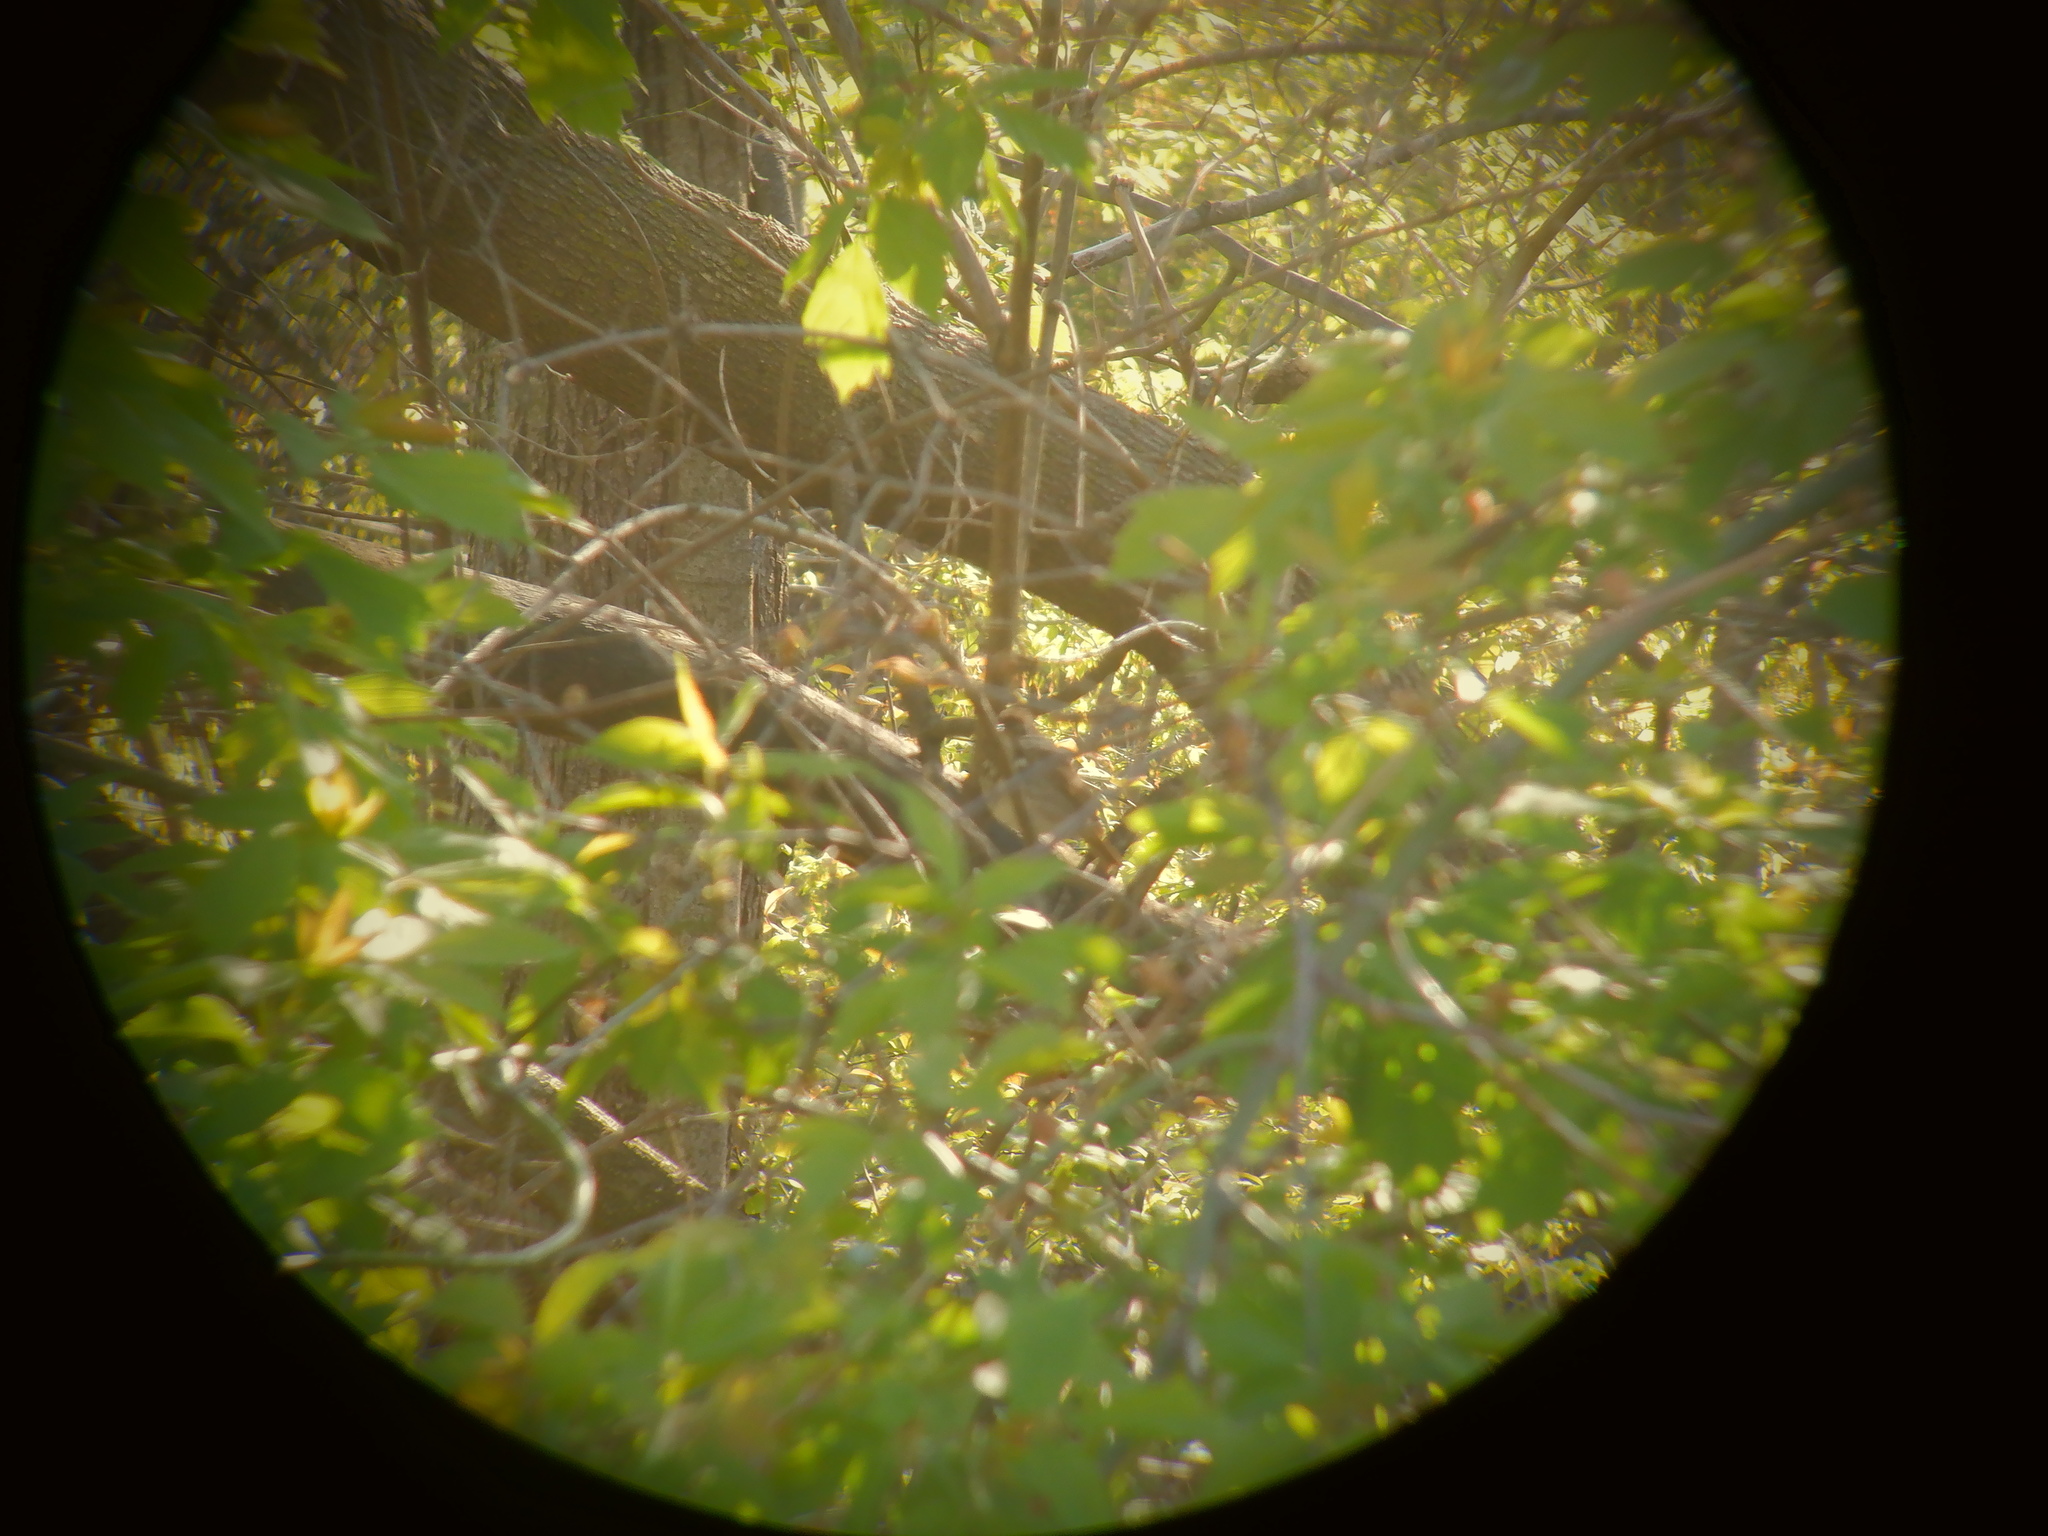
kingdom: Animalia
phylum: Chordata
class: Aves
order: Passeriformes
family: Turdidae
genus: Catharus
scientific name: Catharus guttatus
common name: Hermit thrush
